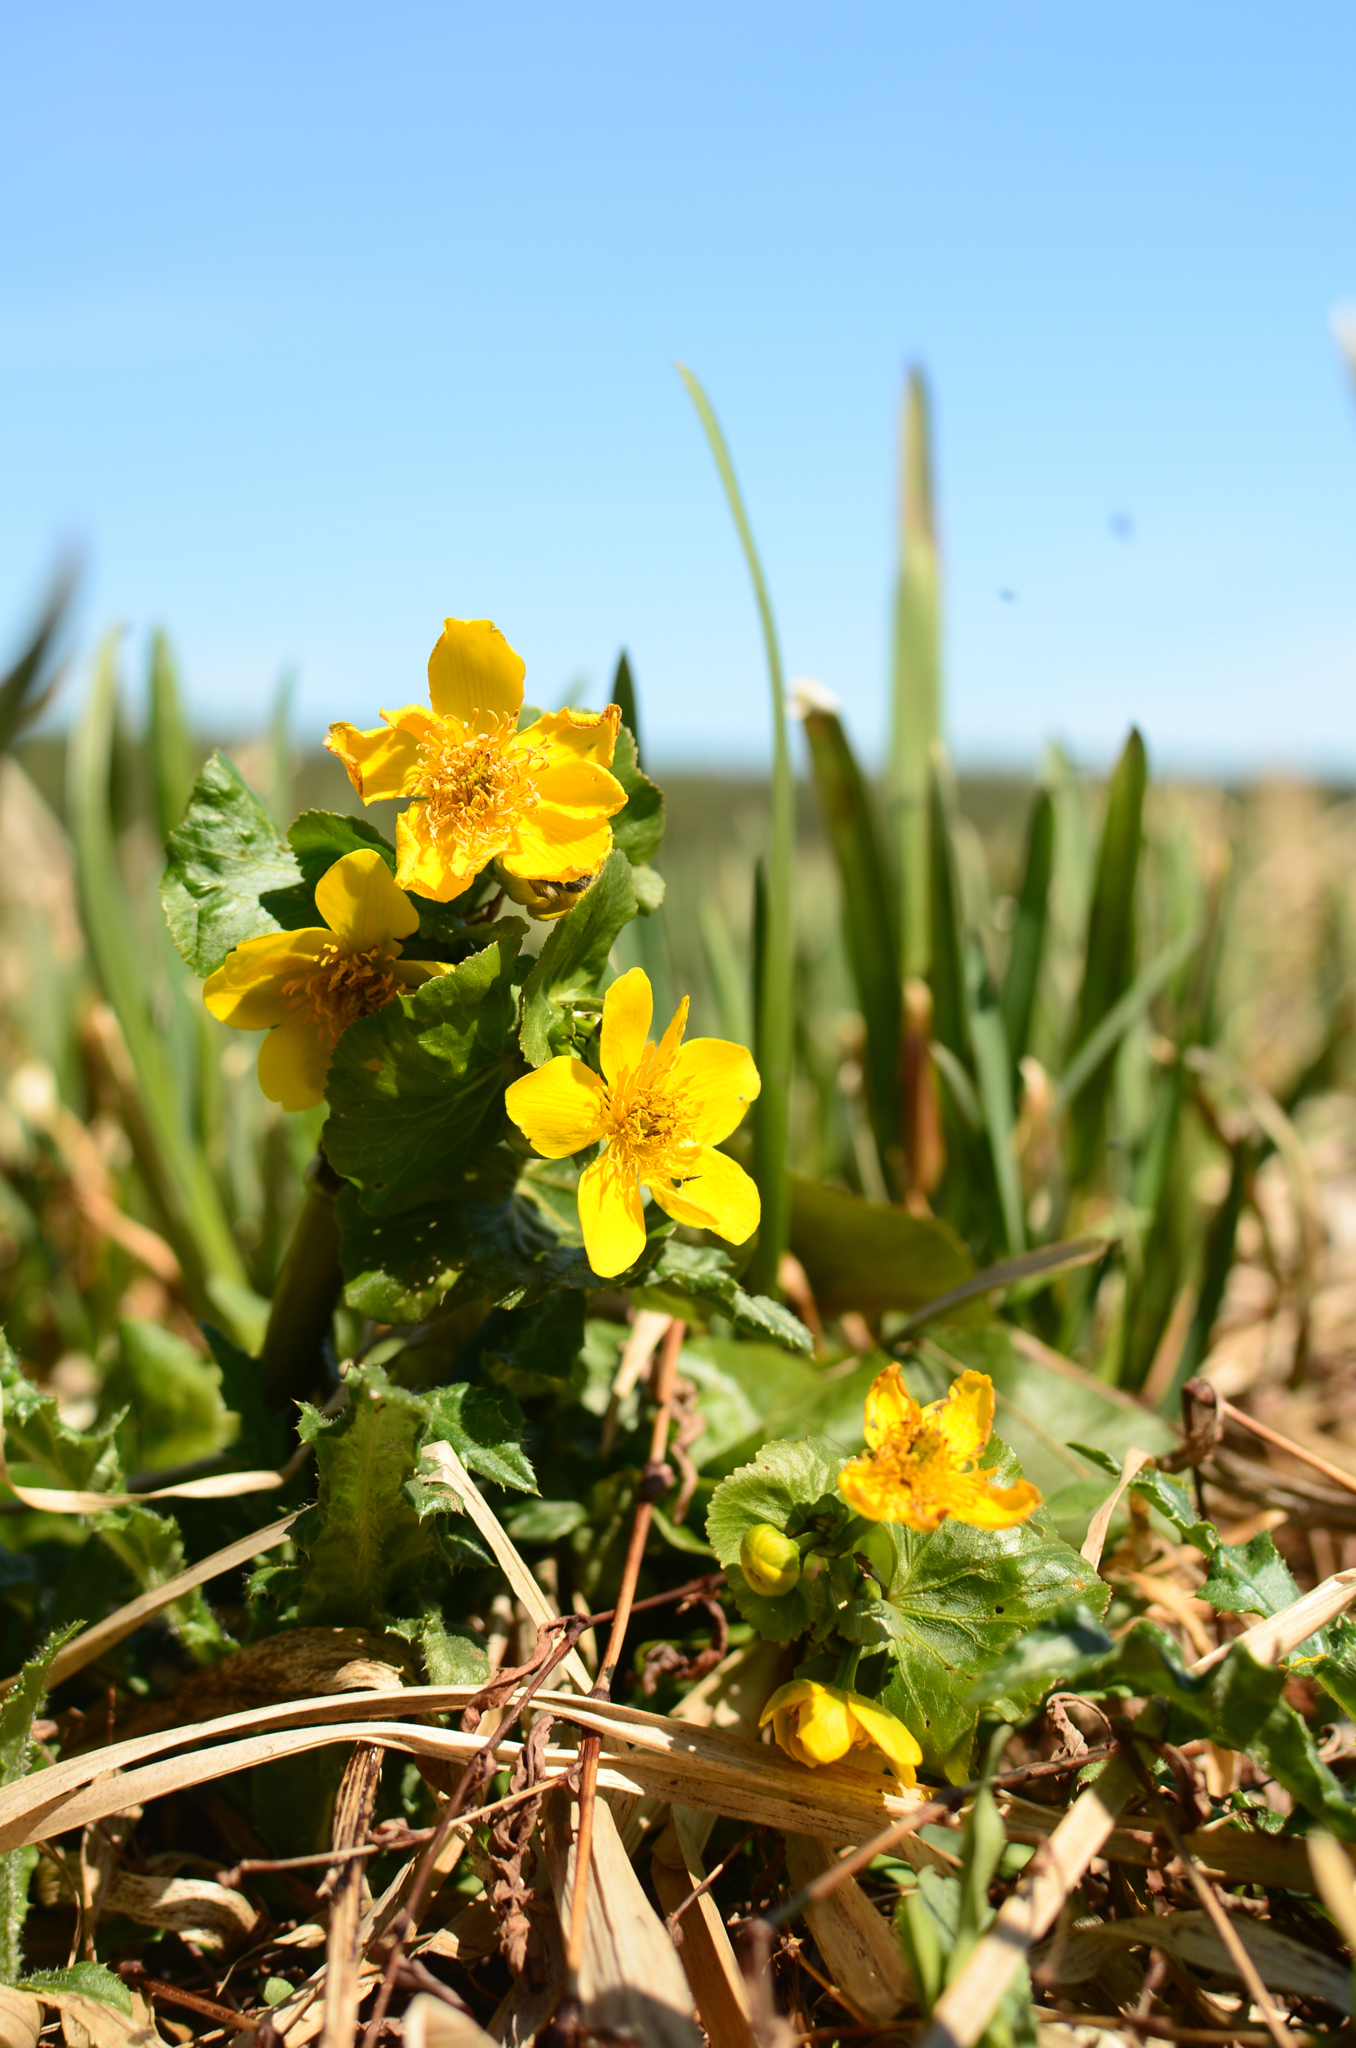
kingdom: Plantae
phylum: Tracheophyta
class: Magnoliopsida
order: Ranunculales
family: Ranunculaceae
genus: Caltha
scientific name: Caltha palustris
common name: Marsh marigold
